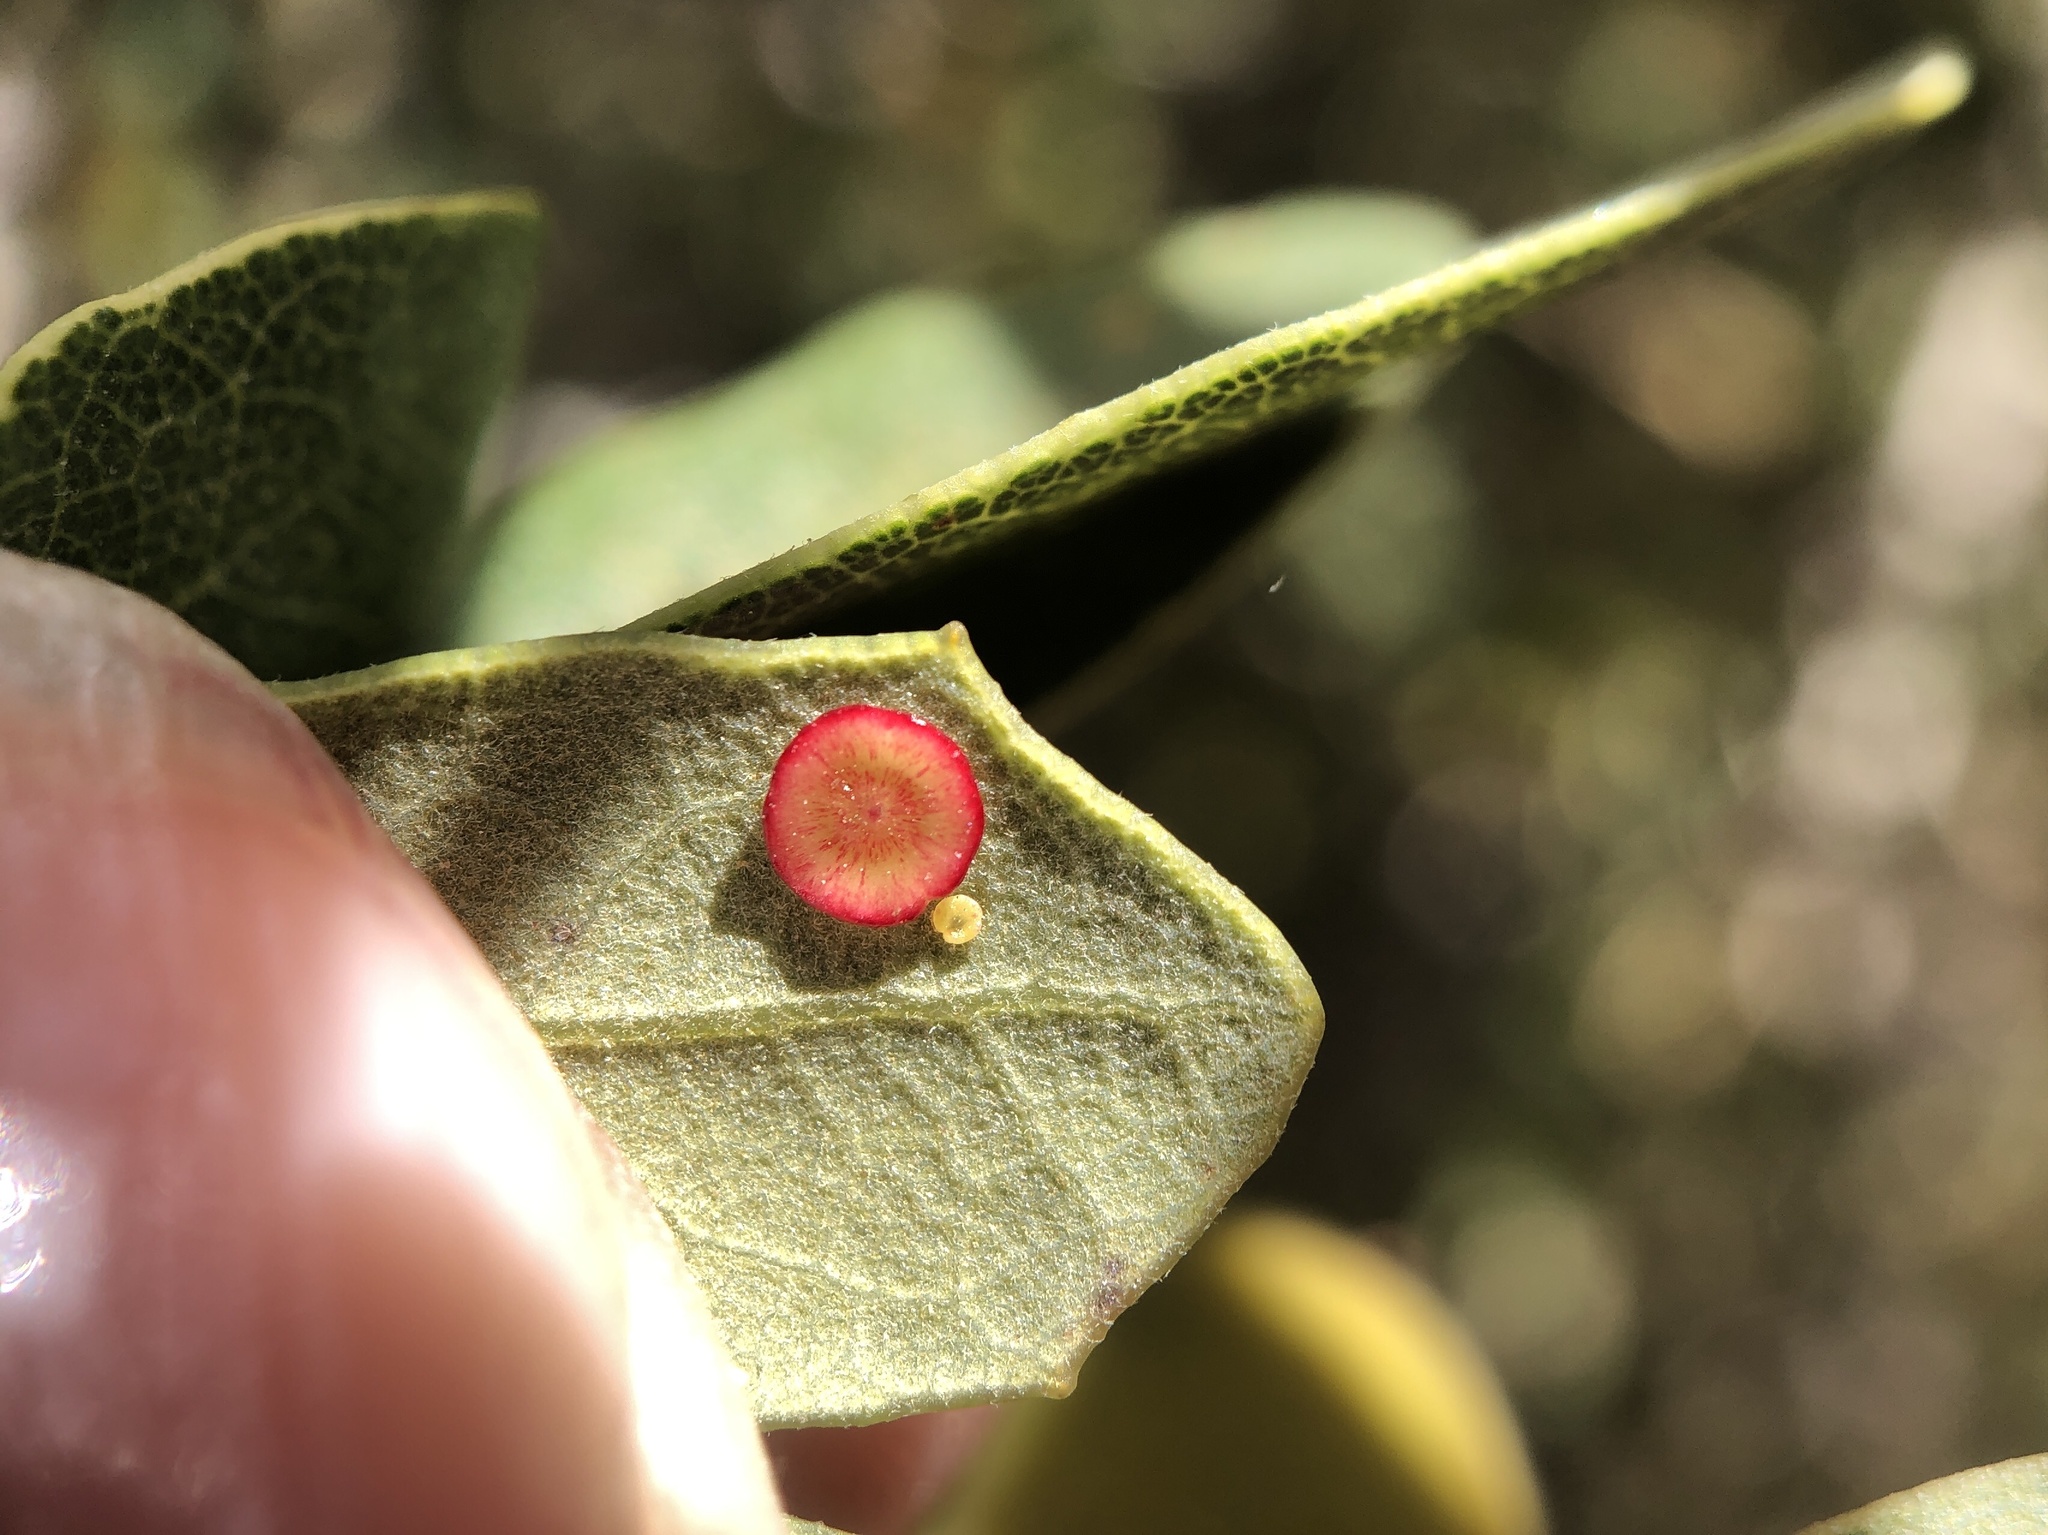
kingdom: Animalia
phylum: Arthropoda
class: Insecta
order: Hymenoptera
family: Cynipidae
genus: Andricus
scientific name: Andricus
